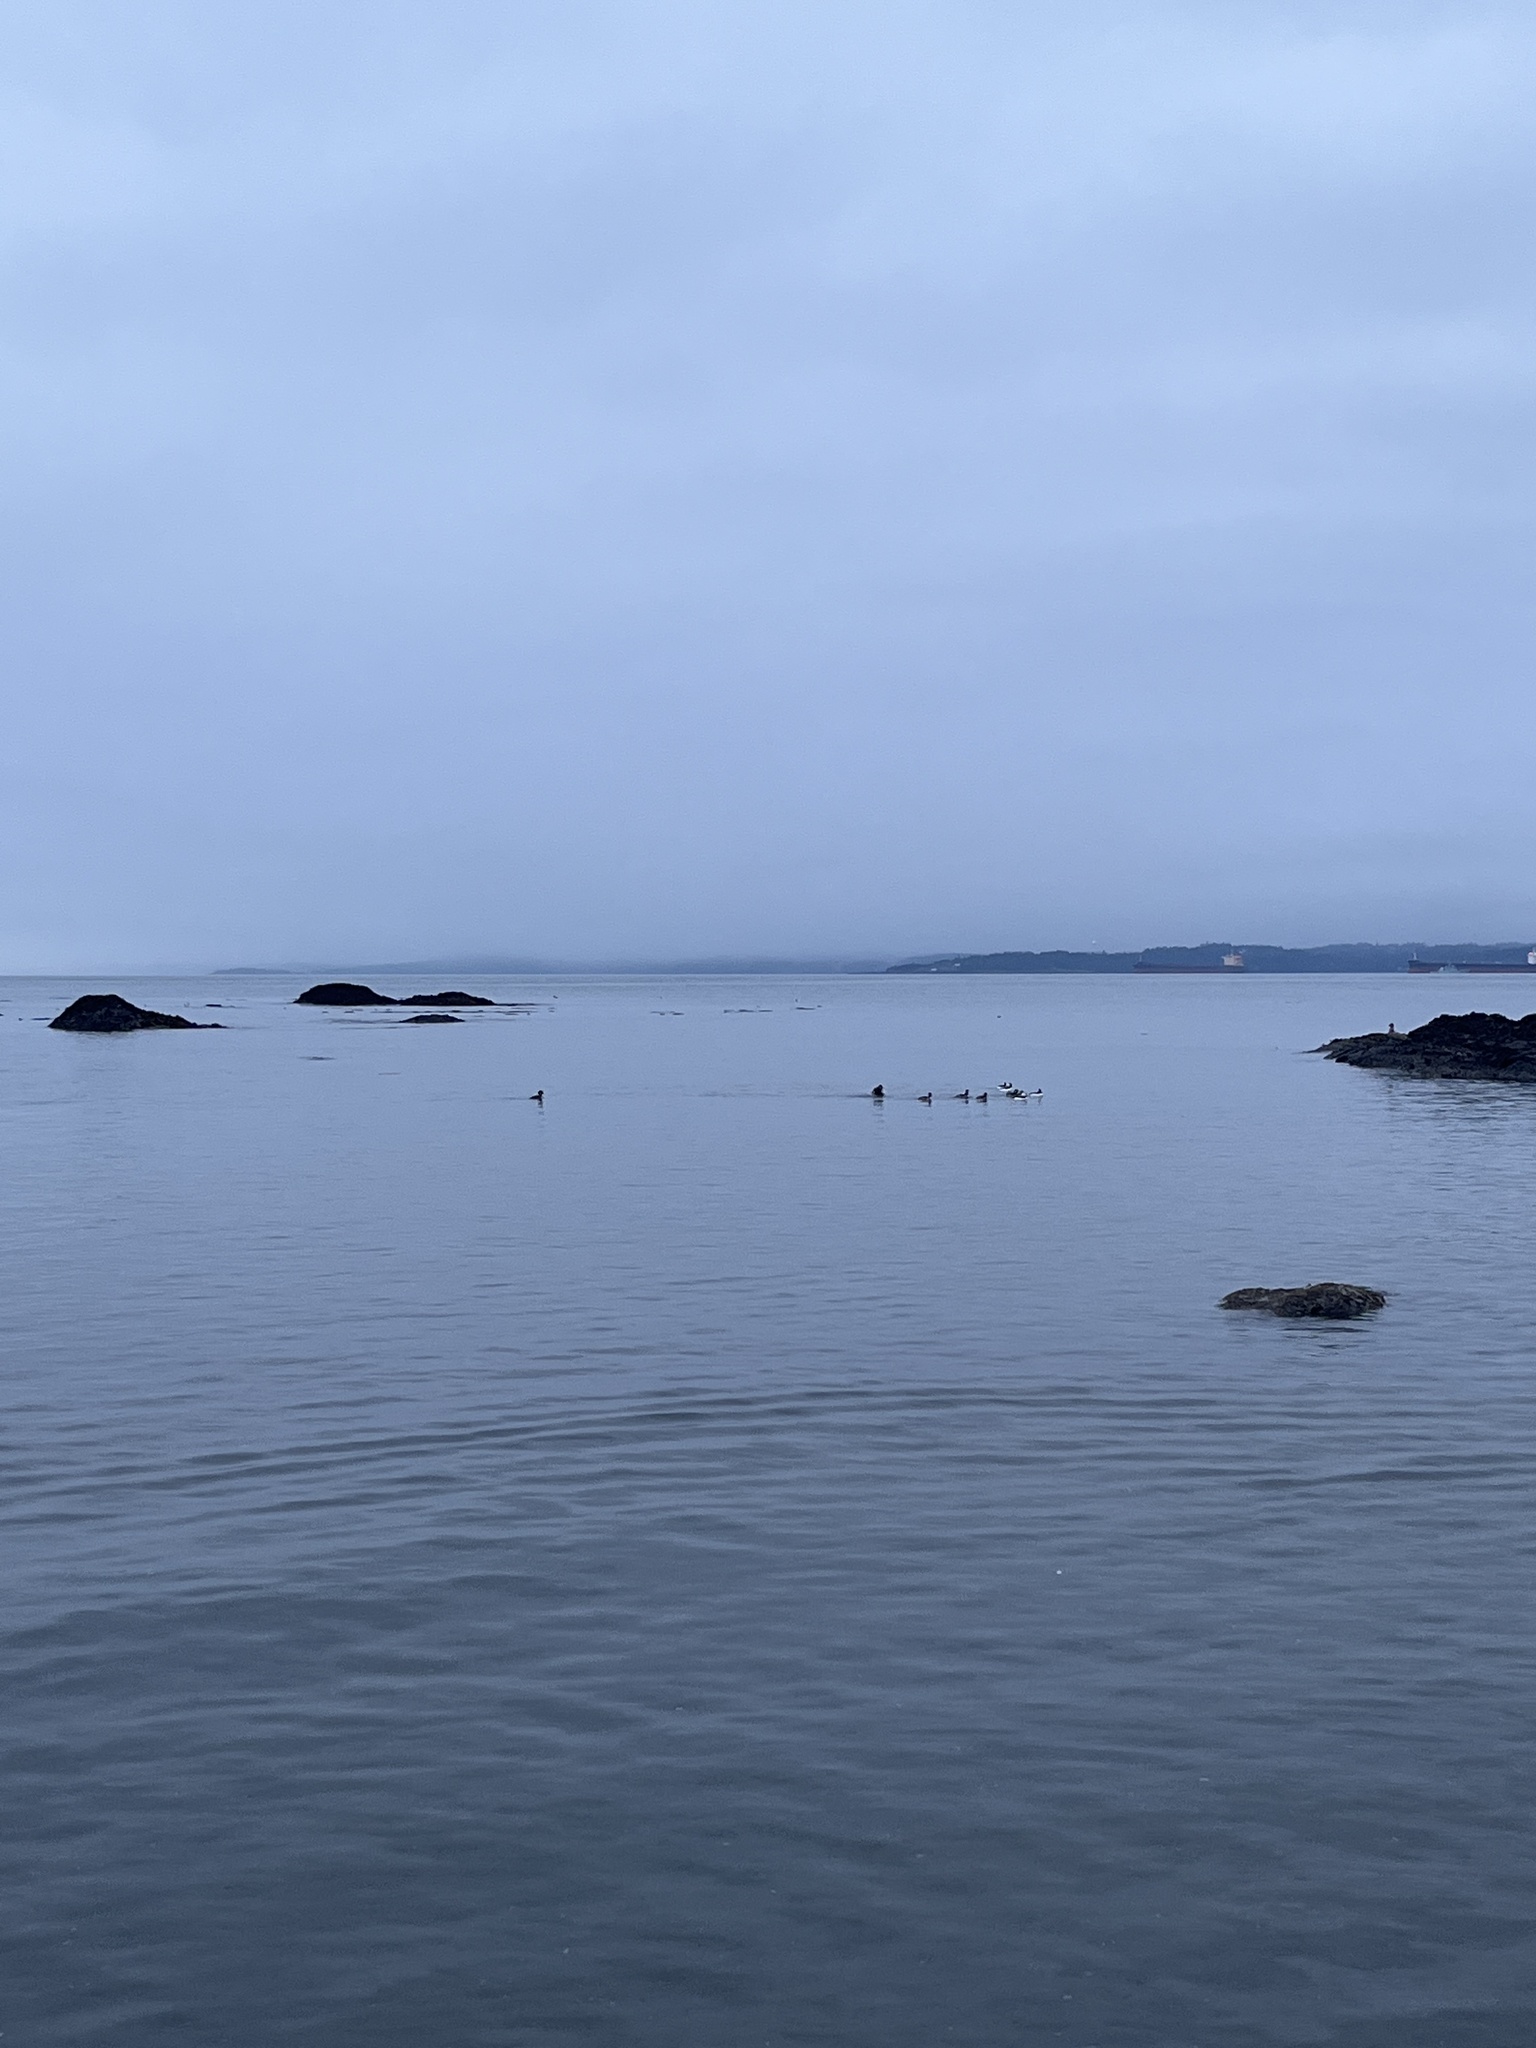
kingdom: Animalia
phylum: Chordata
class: Aves
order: Anseriformes
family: Anatidae
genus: Bucephala
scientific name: Bucephala albeola
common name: Bufflehead
